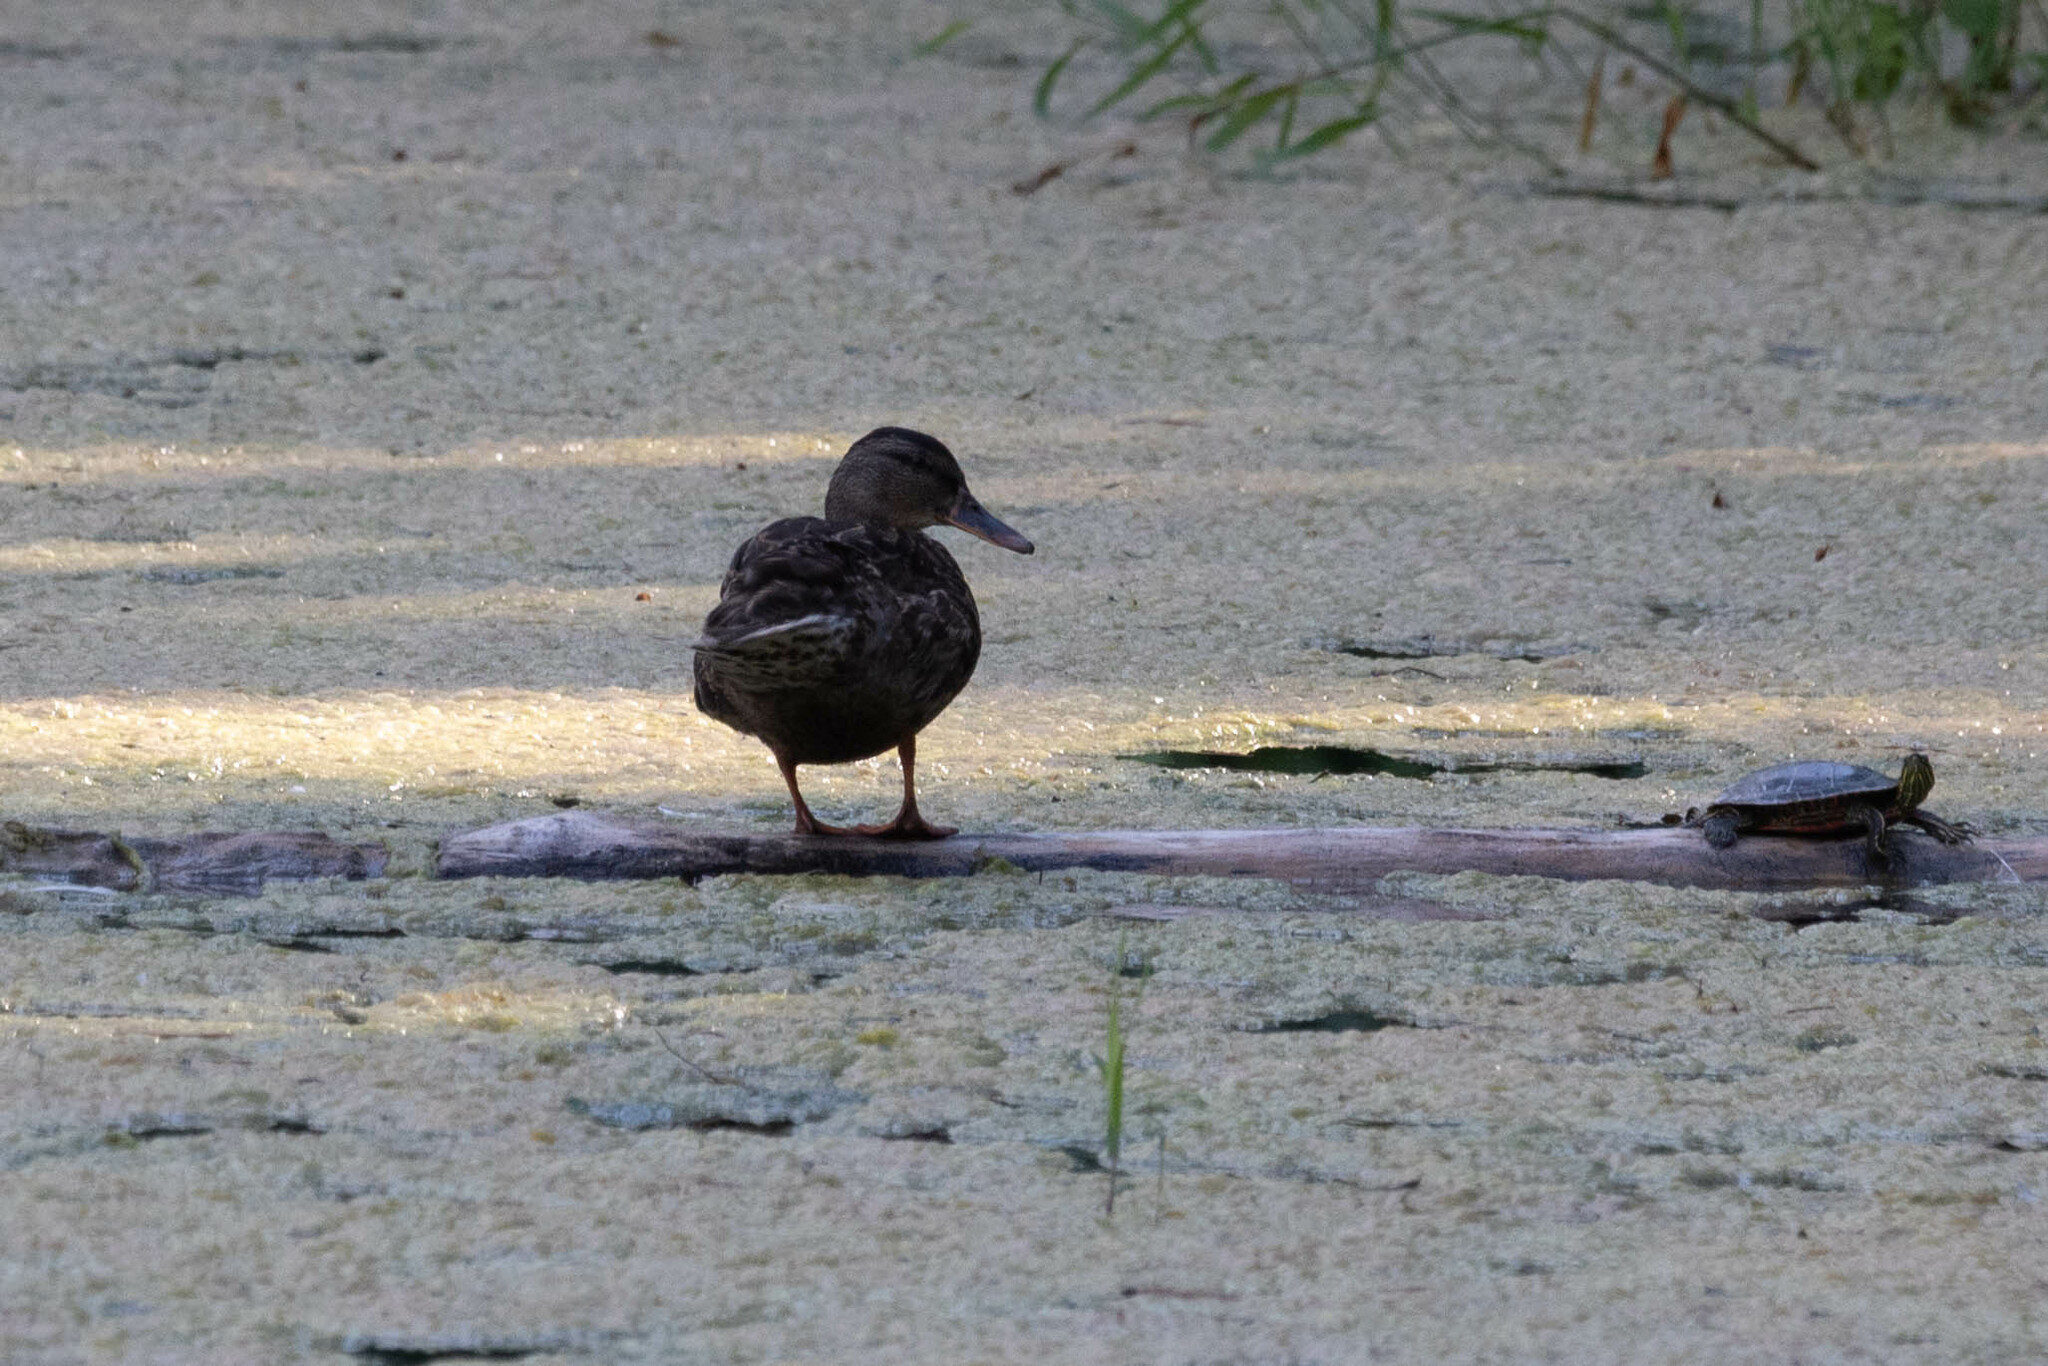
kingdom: Animalia
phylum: Chordata
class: Aves
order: Anseriformes
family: Anatidae
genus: Anas
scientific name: Anas platyrhynchos
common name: Mallard
